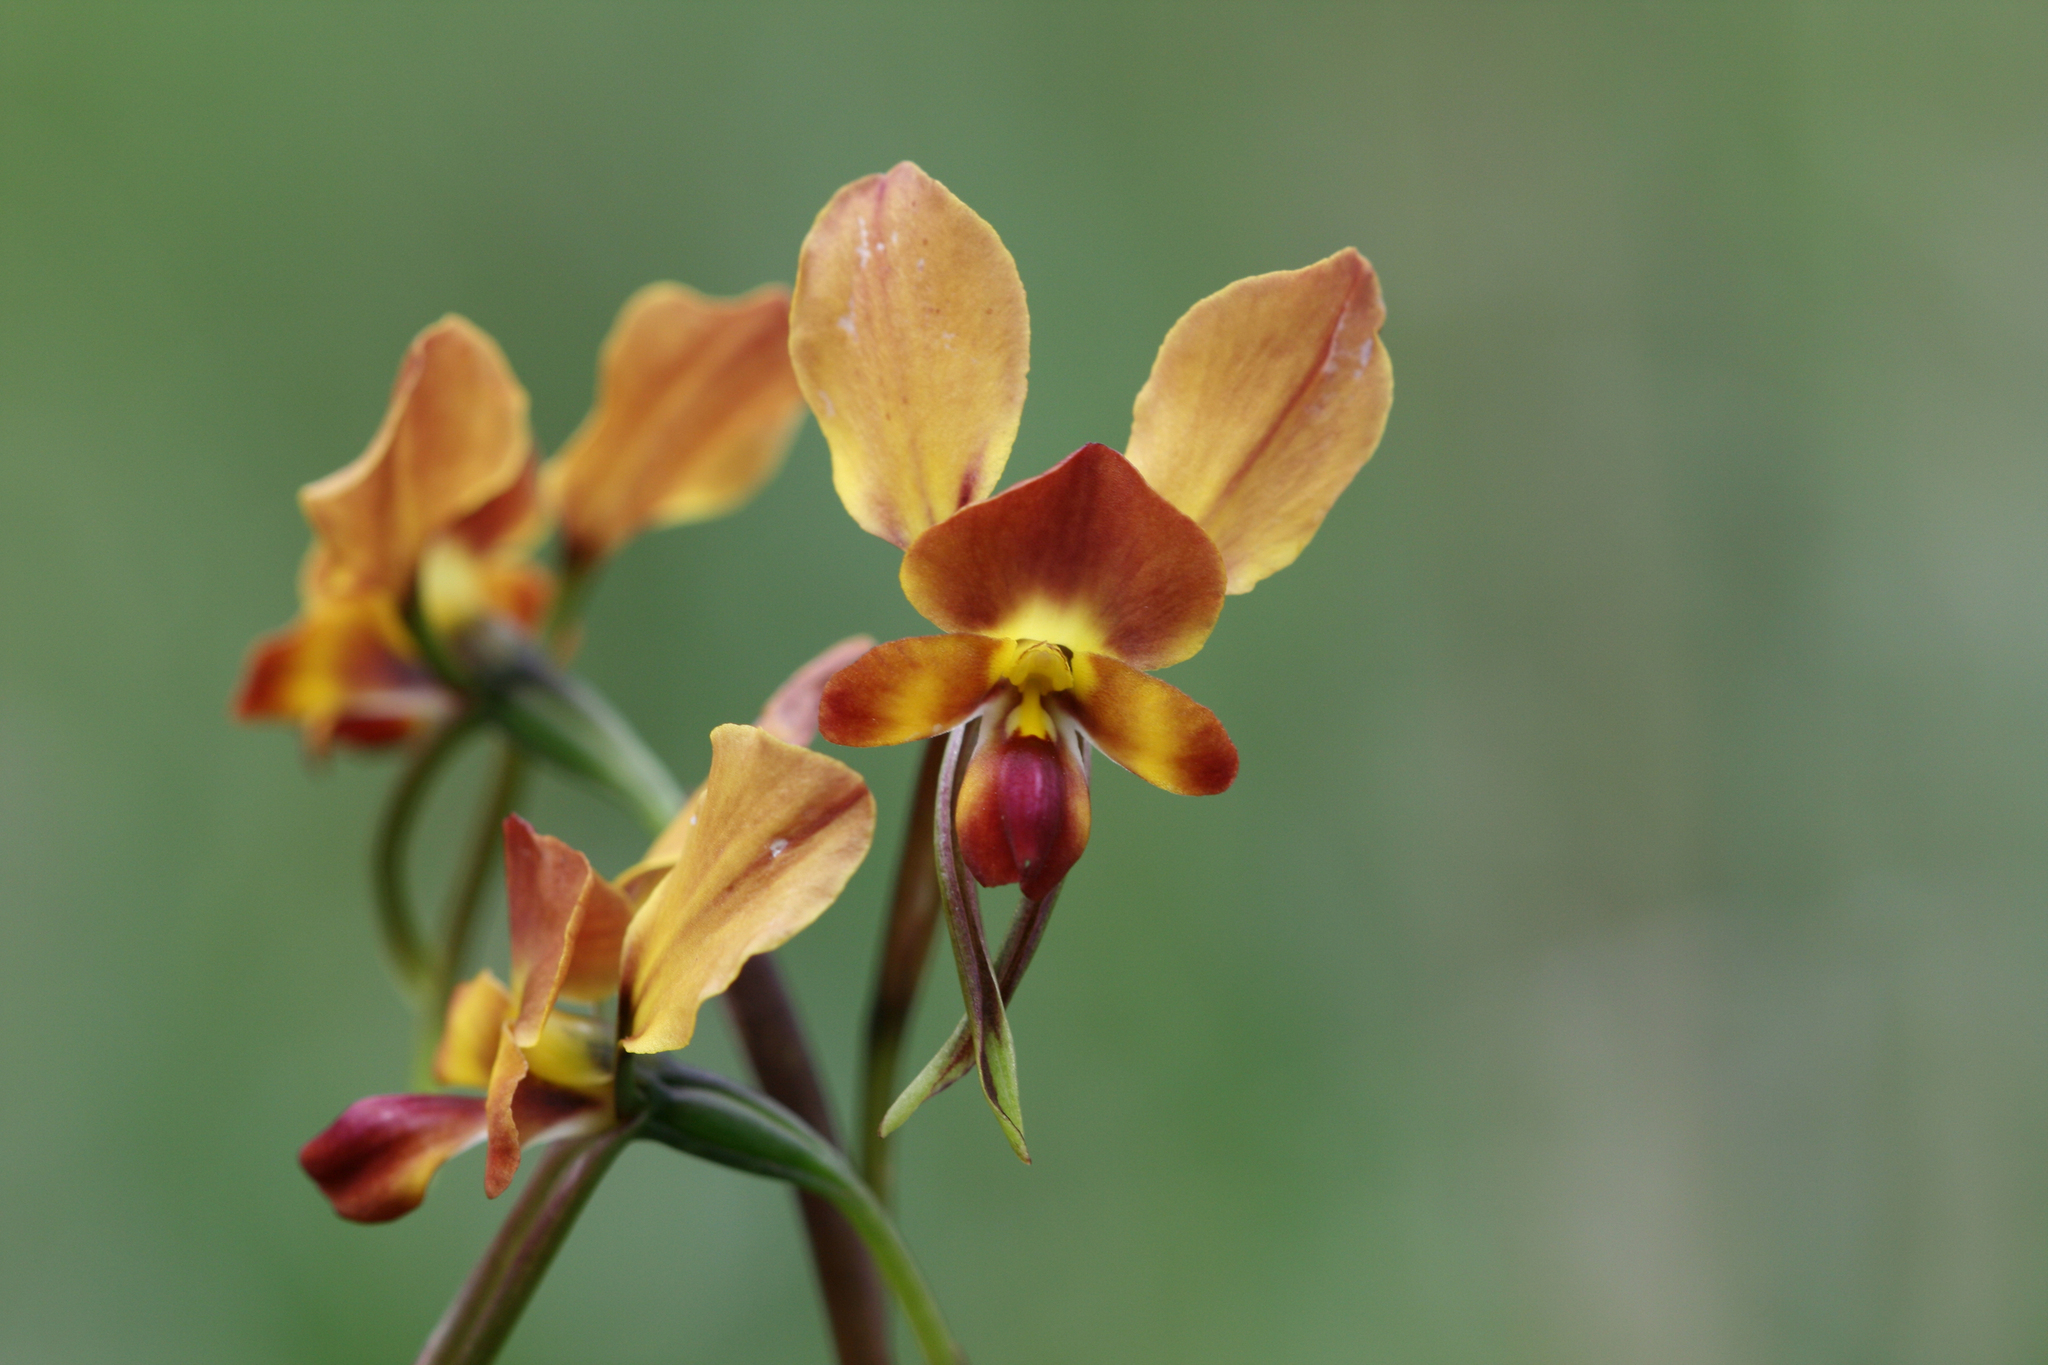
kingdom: Plantae
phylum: Tracheophyta
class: Liliopsida
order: Asparagales
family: Orchidaceae
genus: Diuris
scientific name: Diuris orientis
